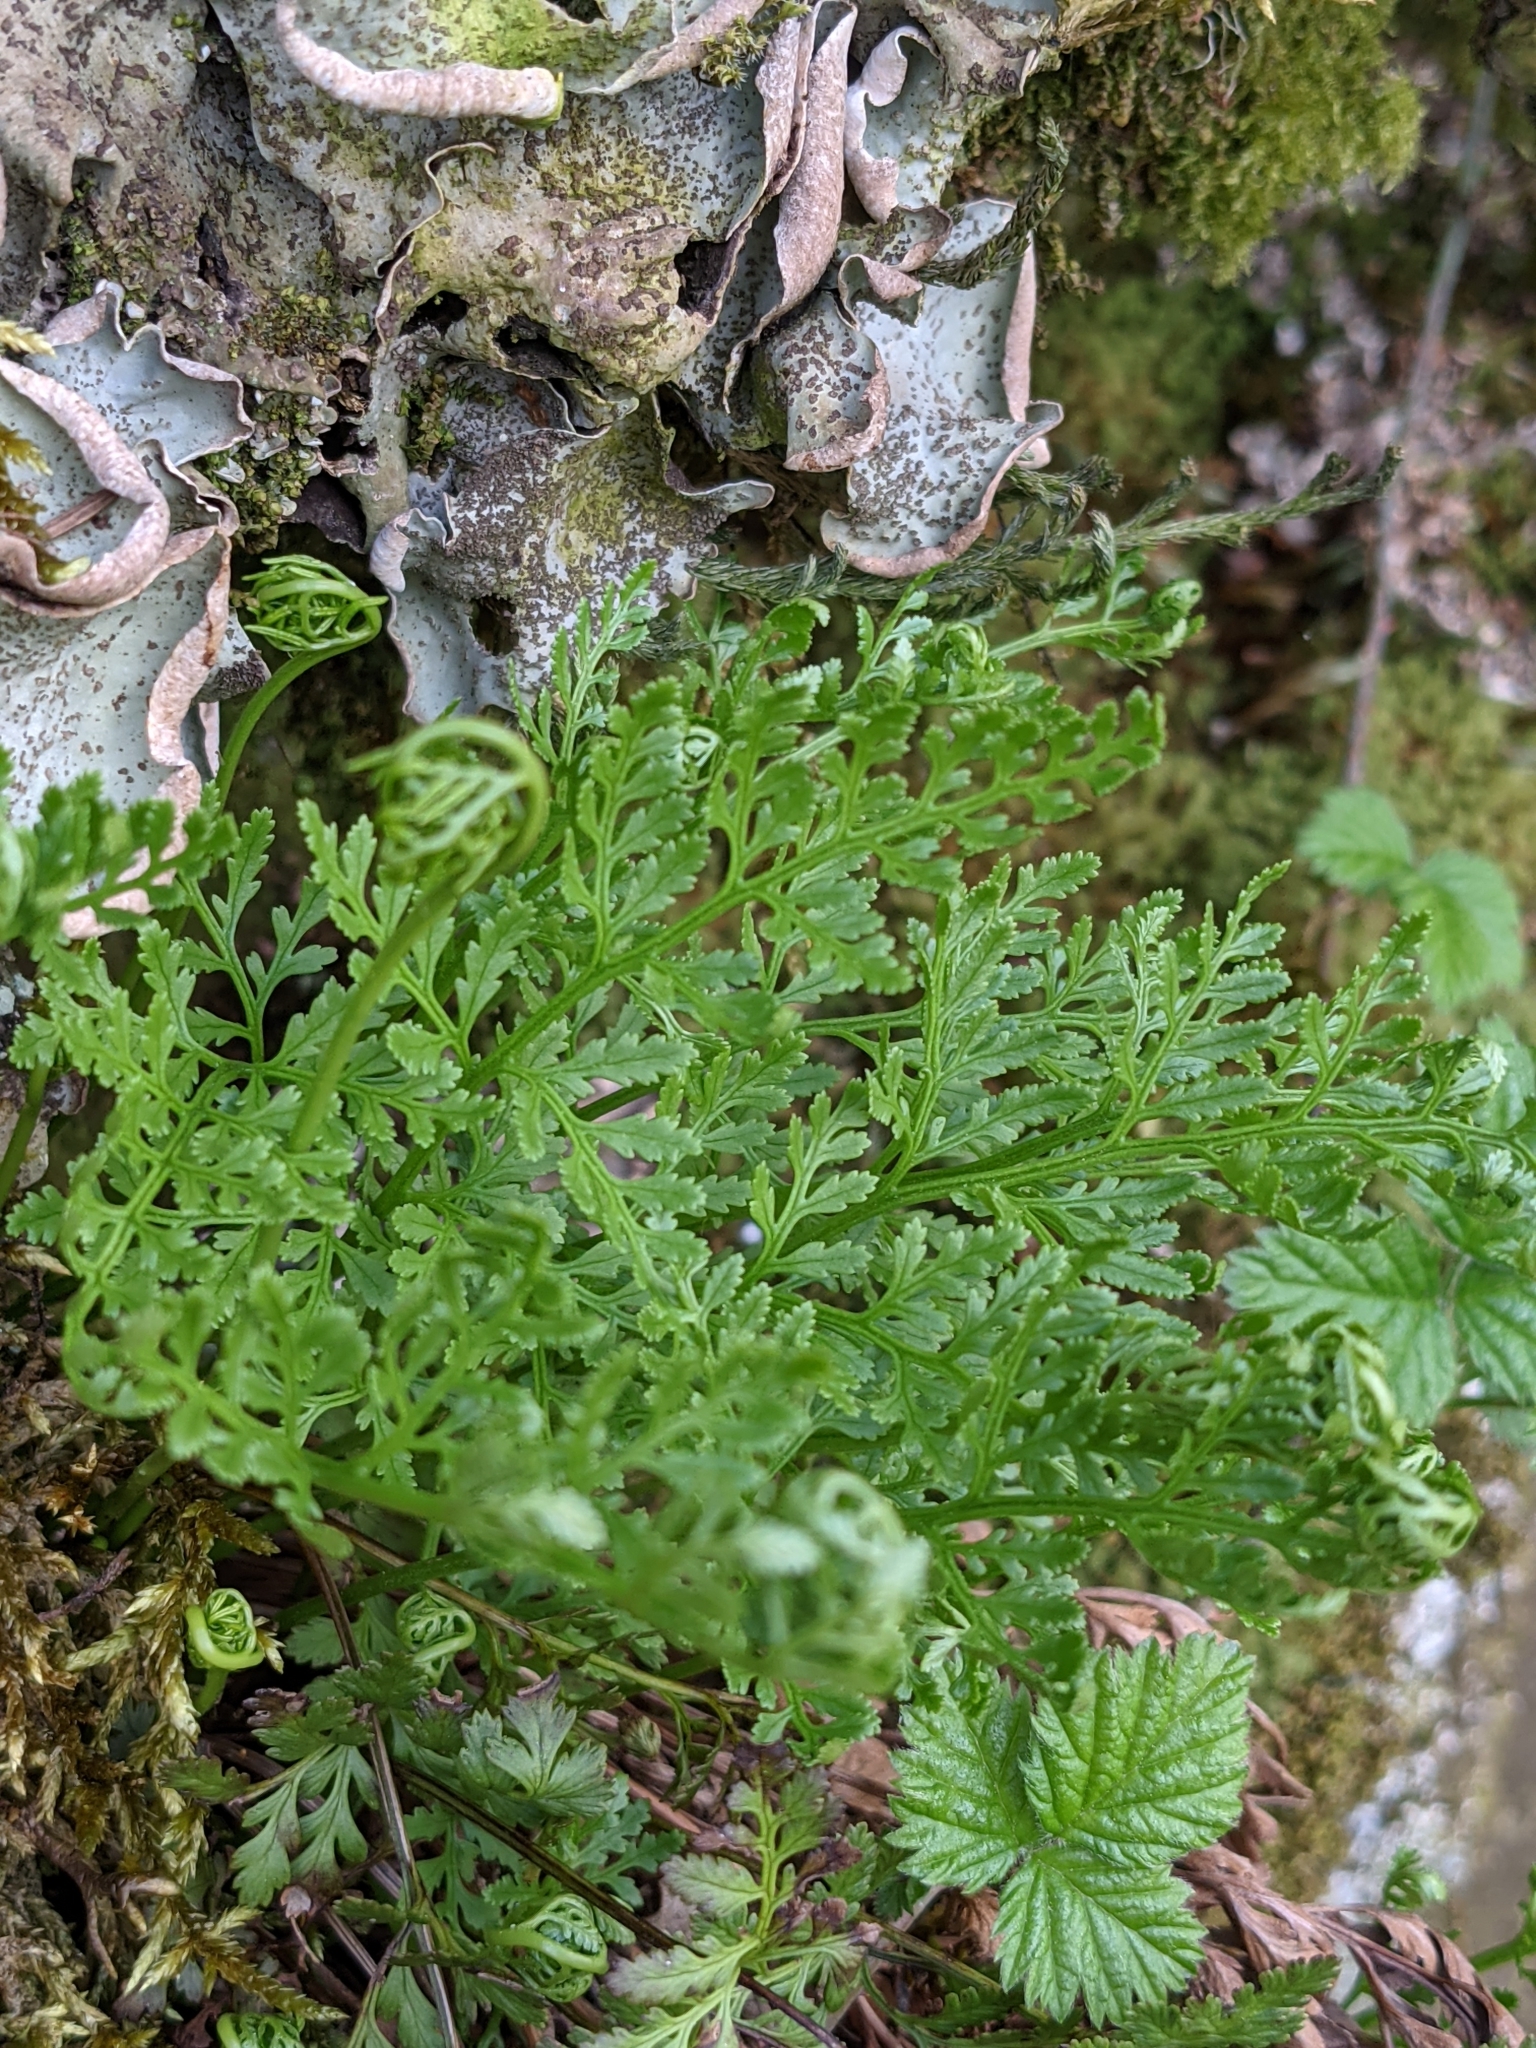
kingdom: Plantae
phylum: Tracheophyta
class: Polypodiopsida
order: Polypodiales
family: Pteridaceae
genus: Cryptogramma
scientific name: Cryptogramma acrostichoides
